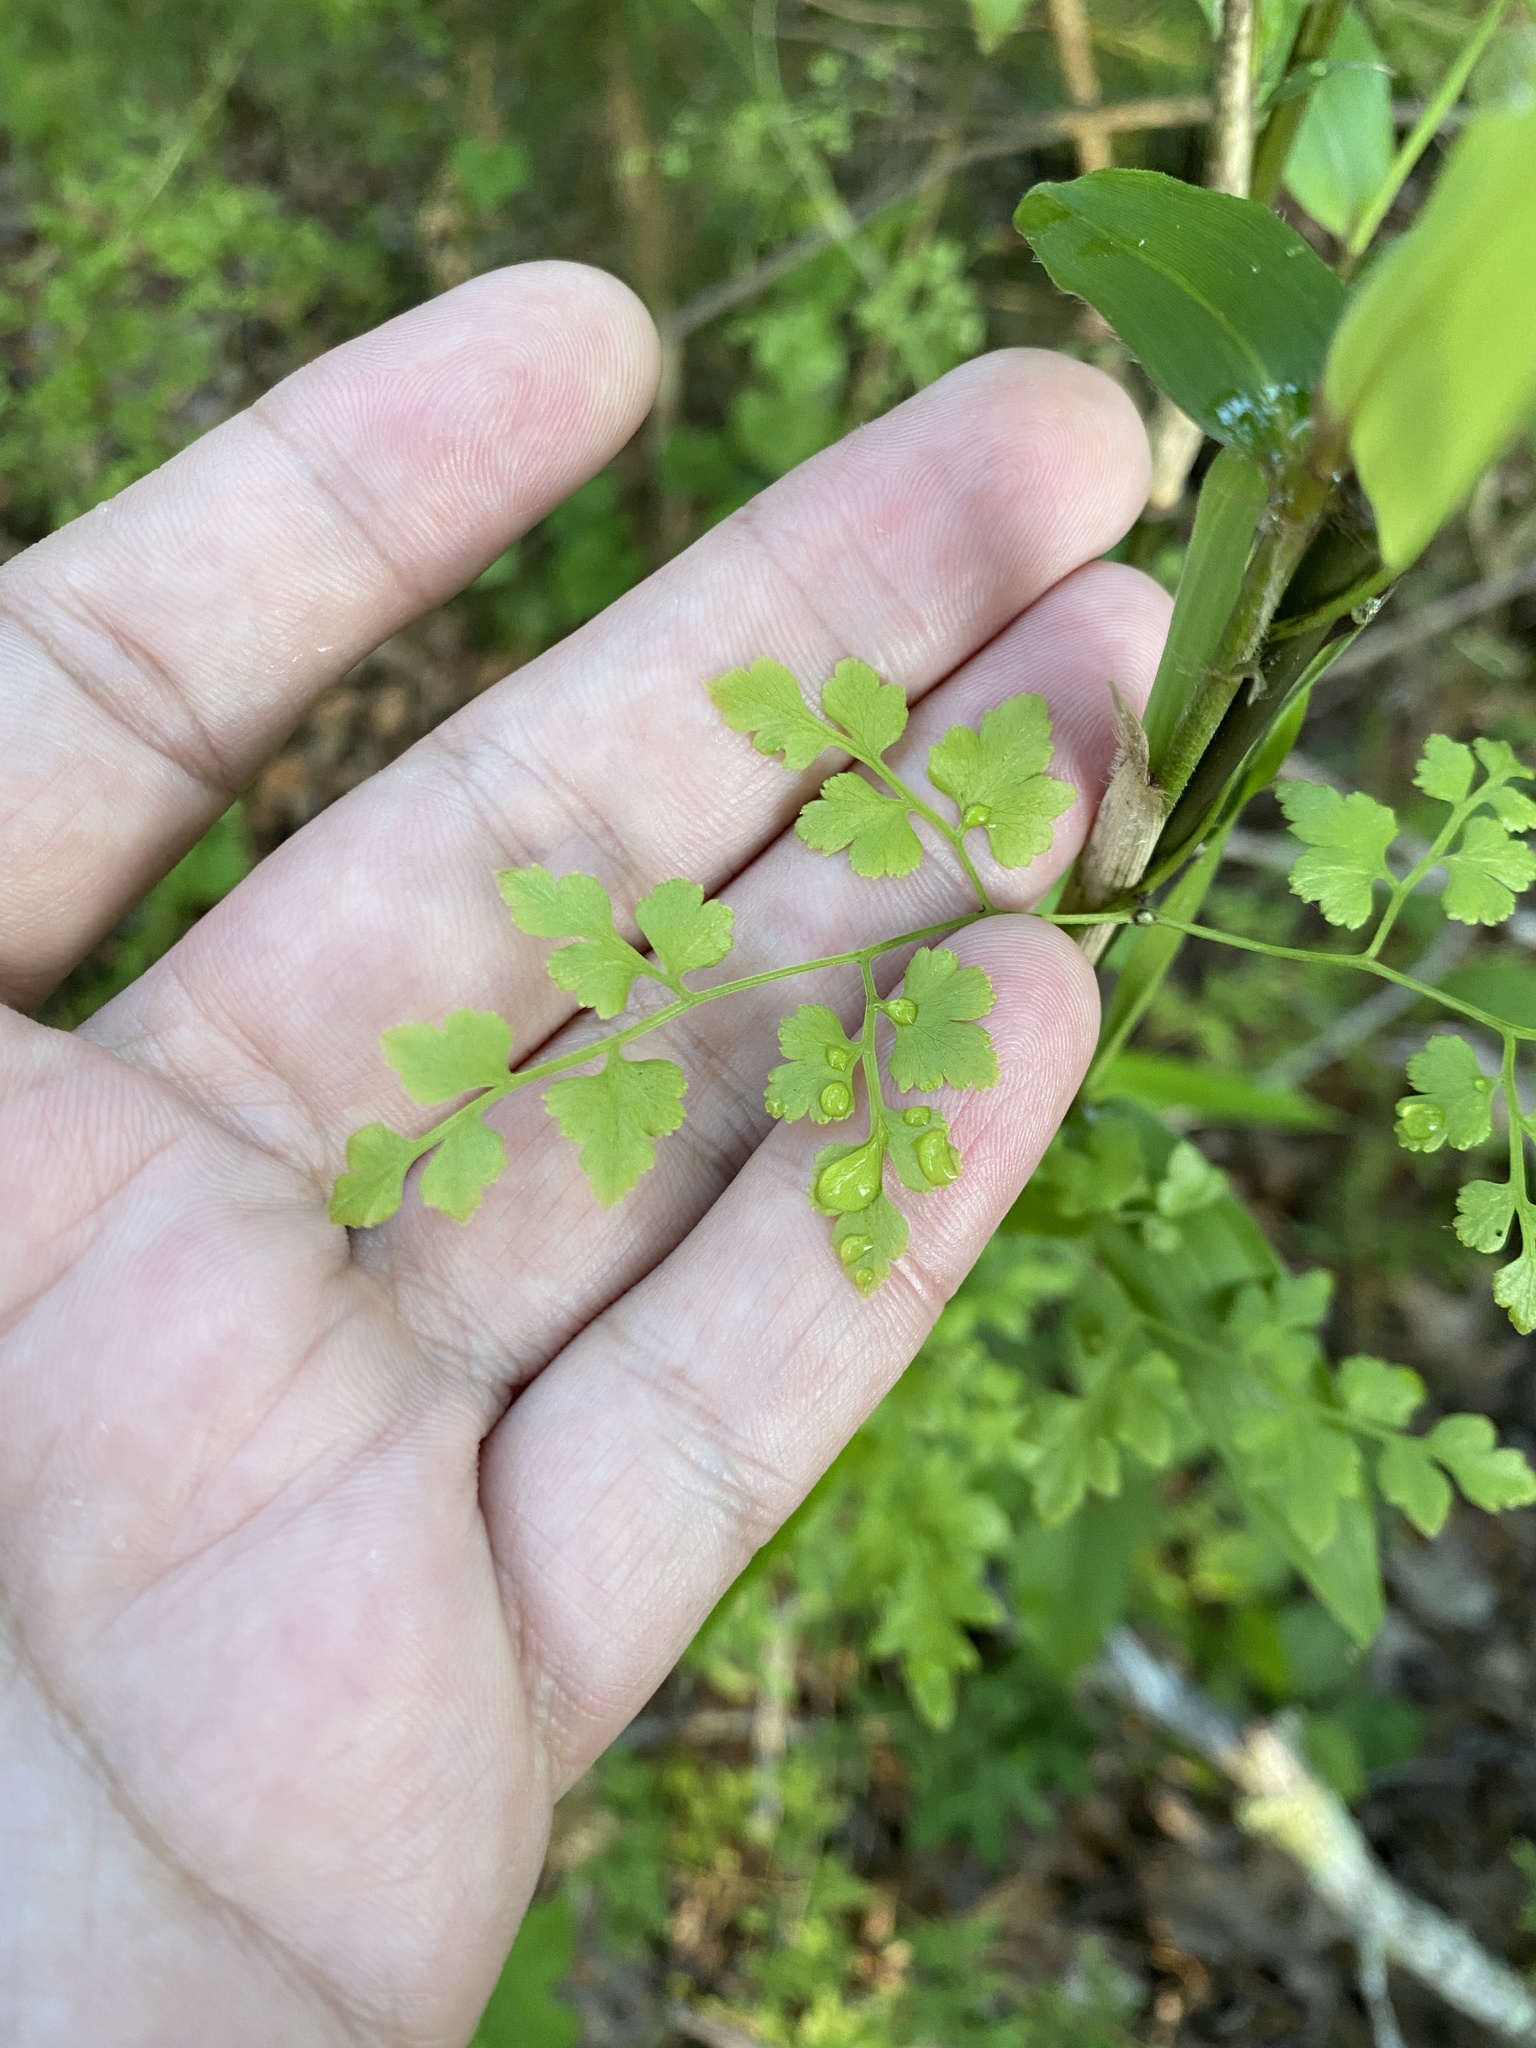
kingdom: Plantae
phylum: Tracheophyta
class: Polypodiopsida
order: Schizaeales
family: Lygodiaceae
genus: Lygodium
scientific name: Lygodium japonicum
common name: Japanese climbing fern
